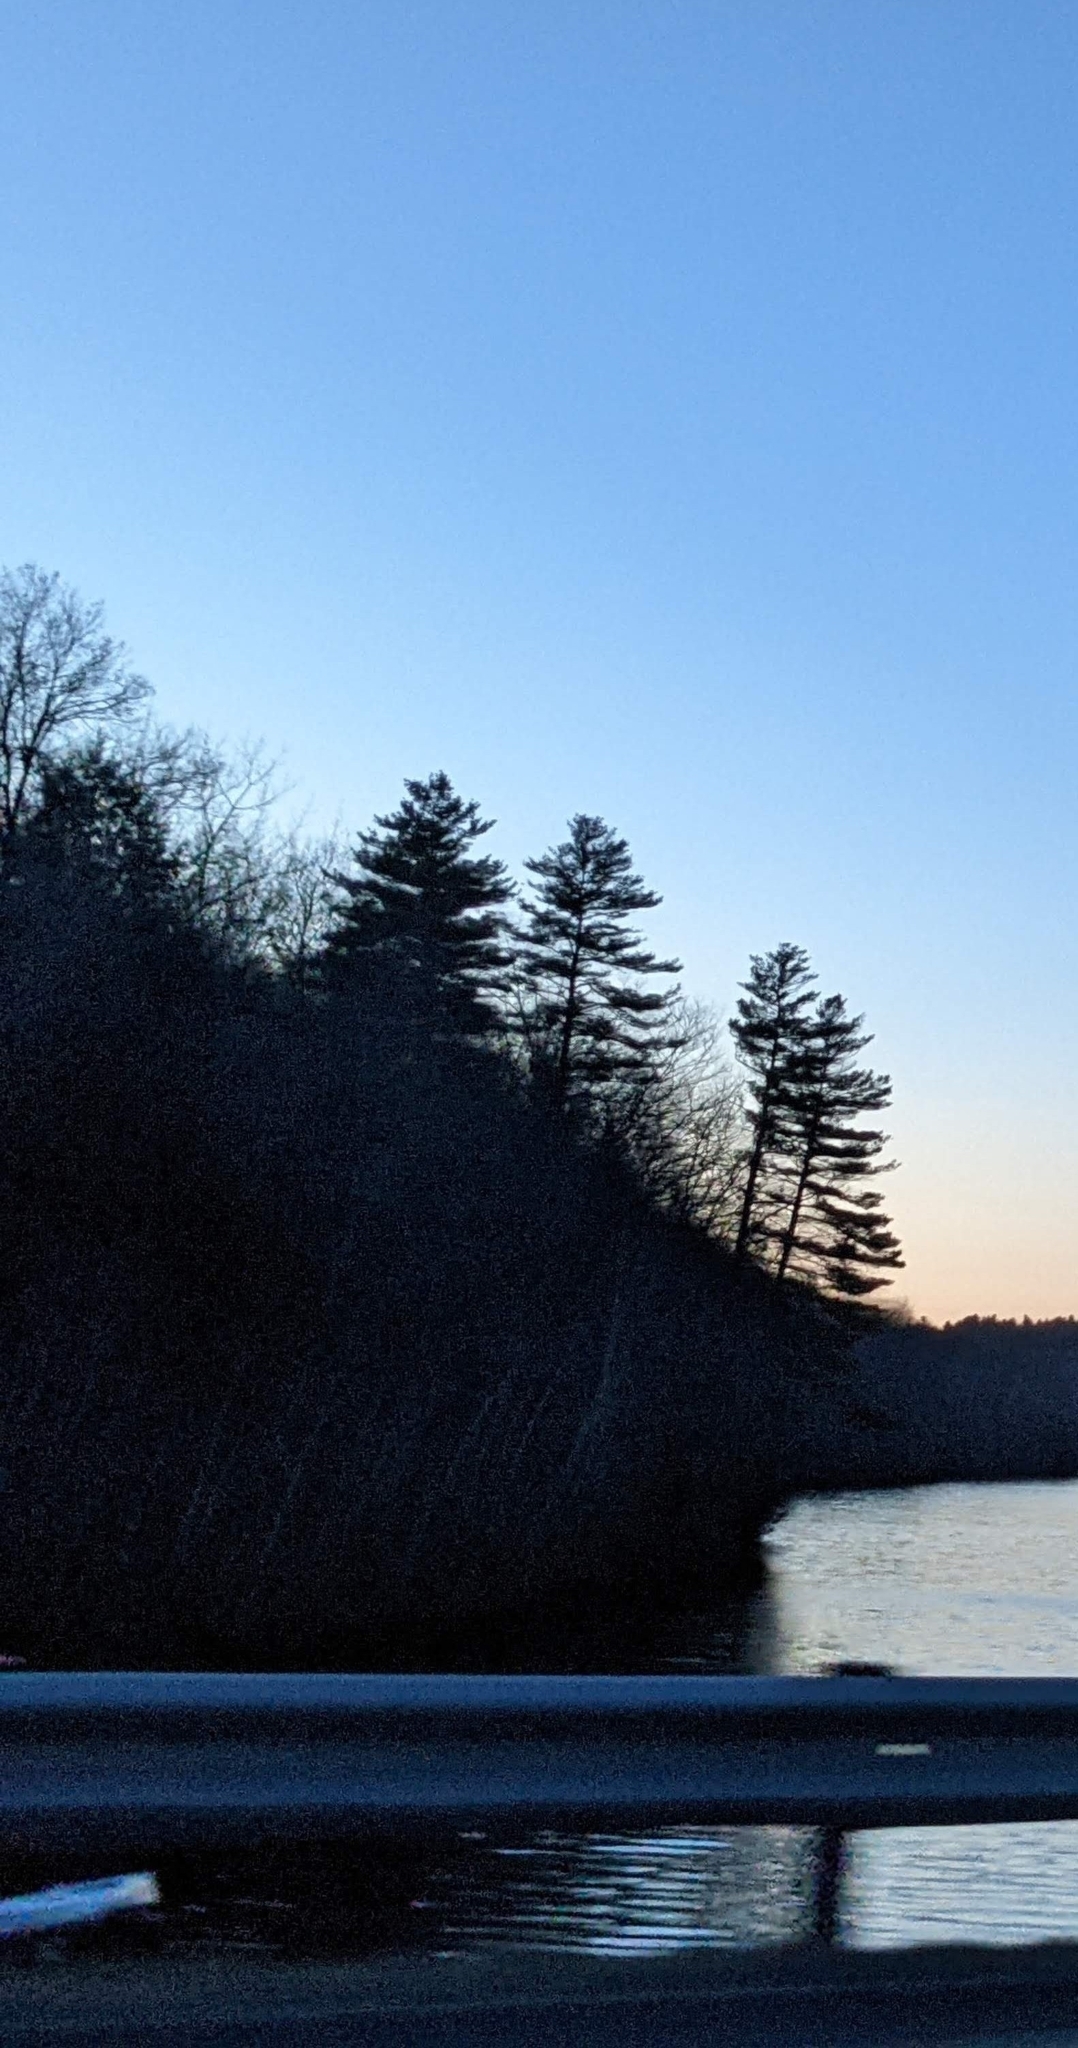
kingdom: Plantae
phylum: Tracheophyta
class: Pinopsida
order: Pinales
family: Pinaceae
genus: Pinus
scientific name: Pinus strobus
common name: Weymouth pine
